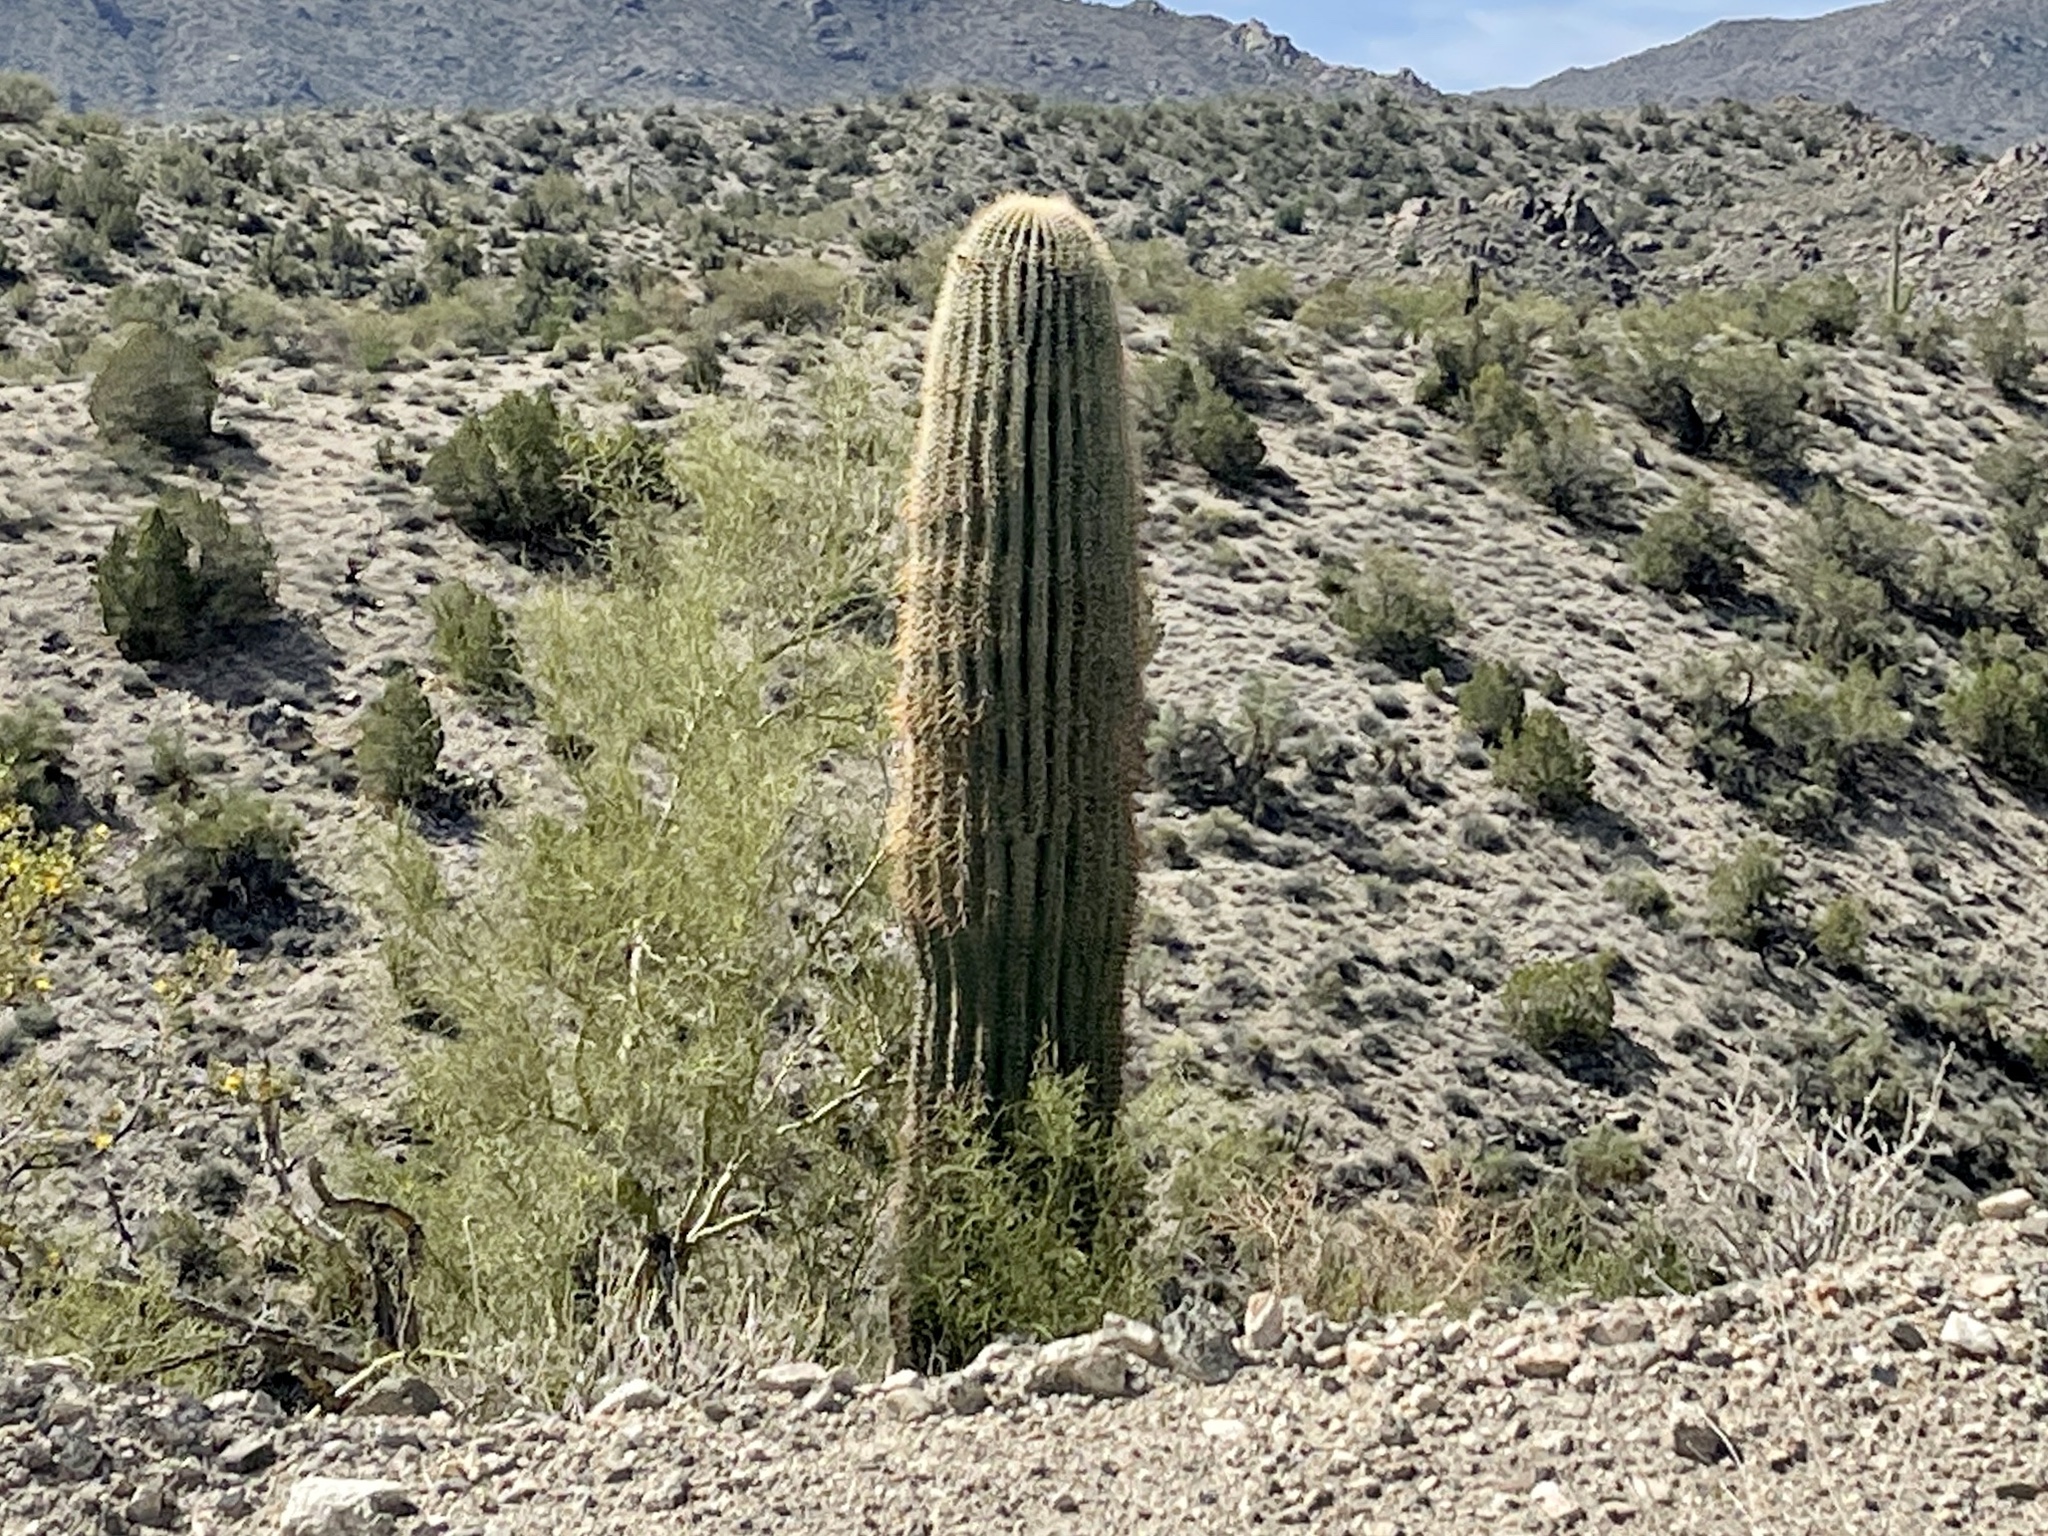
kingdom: Plantae
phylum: Tracheophyta
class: Magnoliopsida
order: Caryophyllales
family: Cactaceae
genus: Carnegiea
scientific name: Carnegiea gigantea
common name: Saguaro
